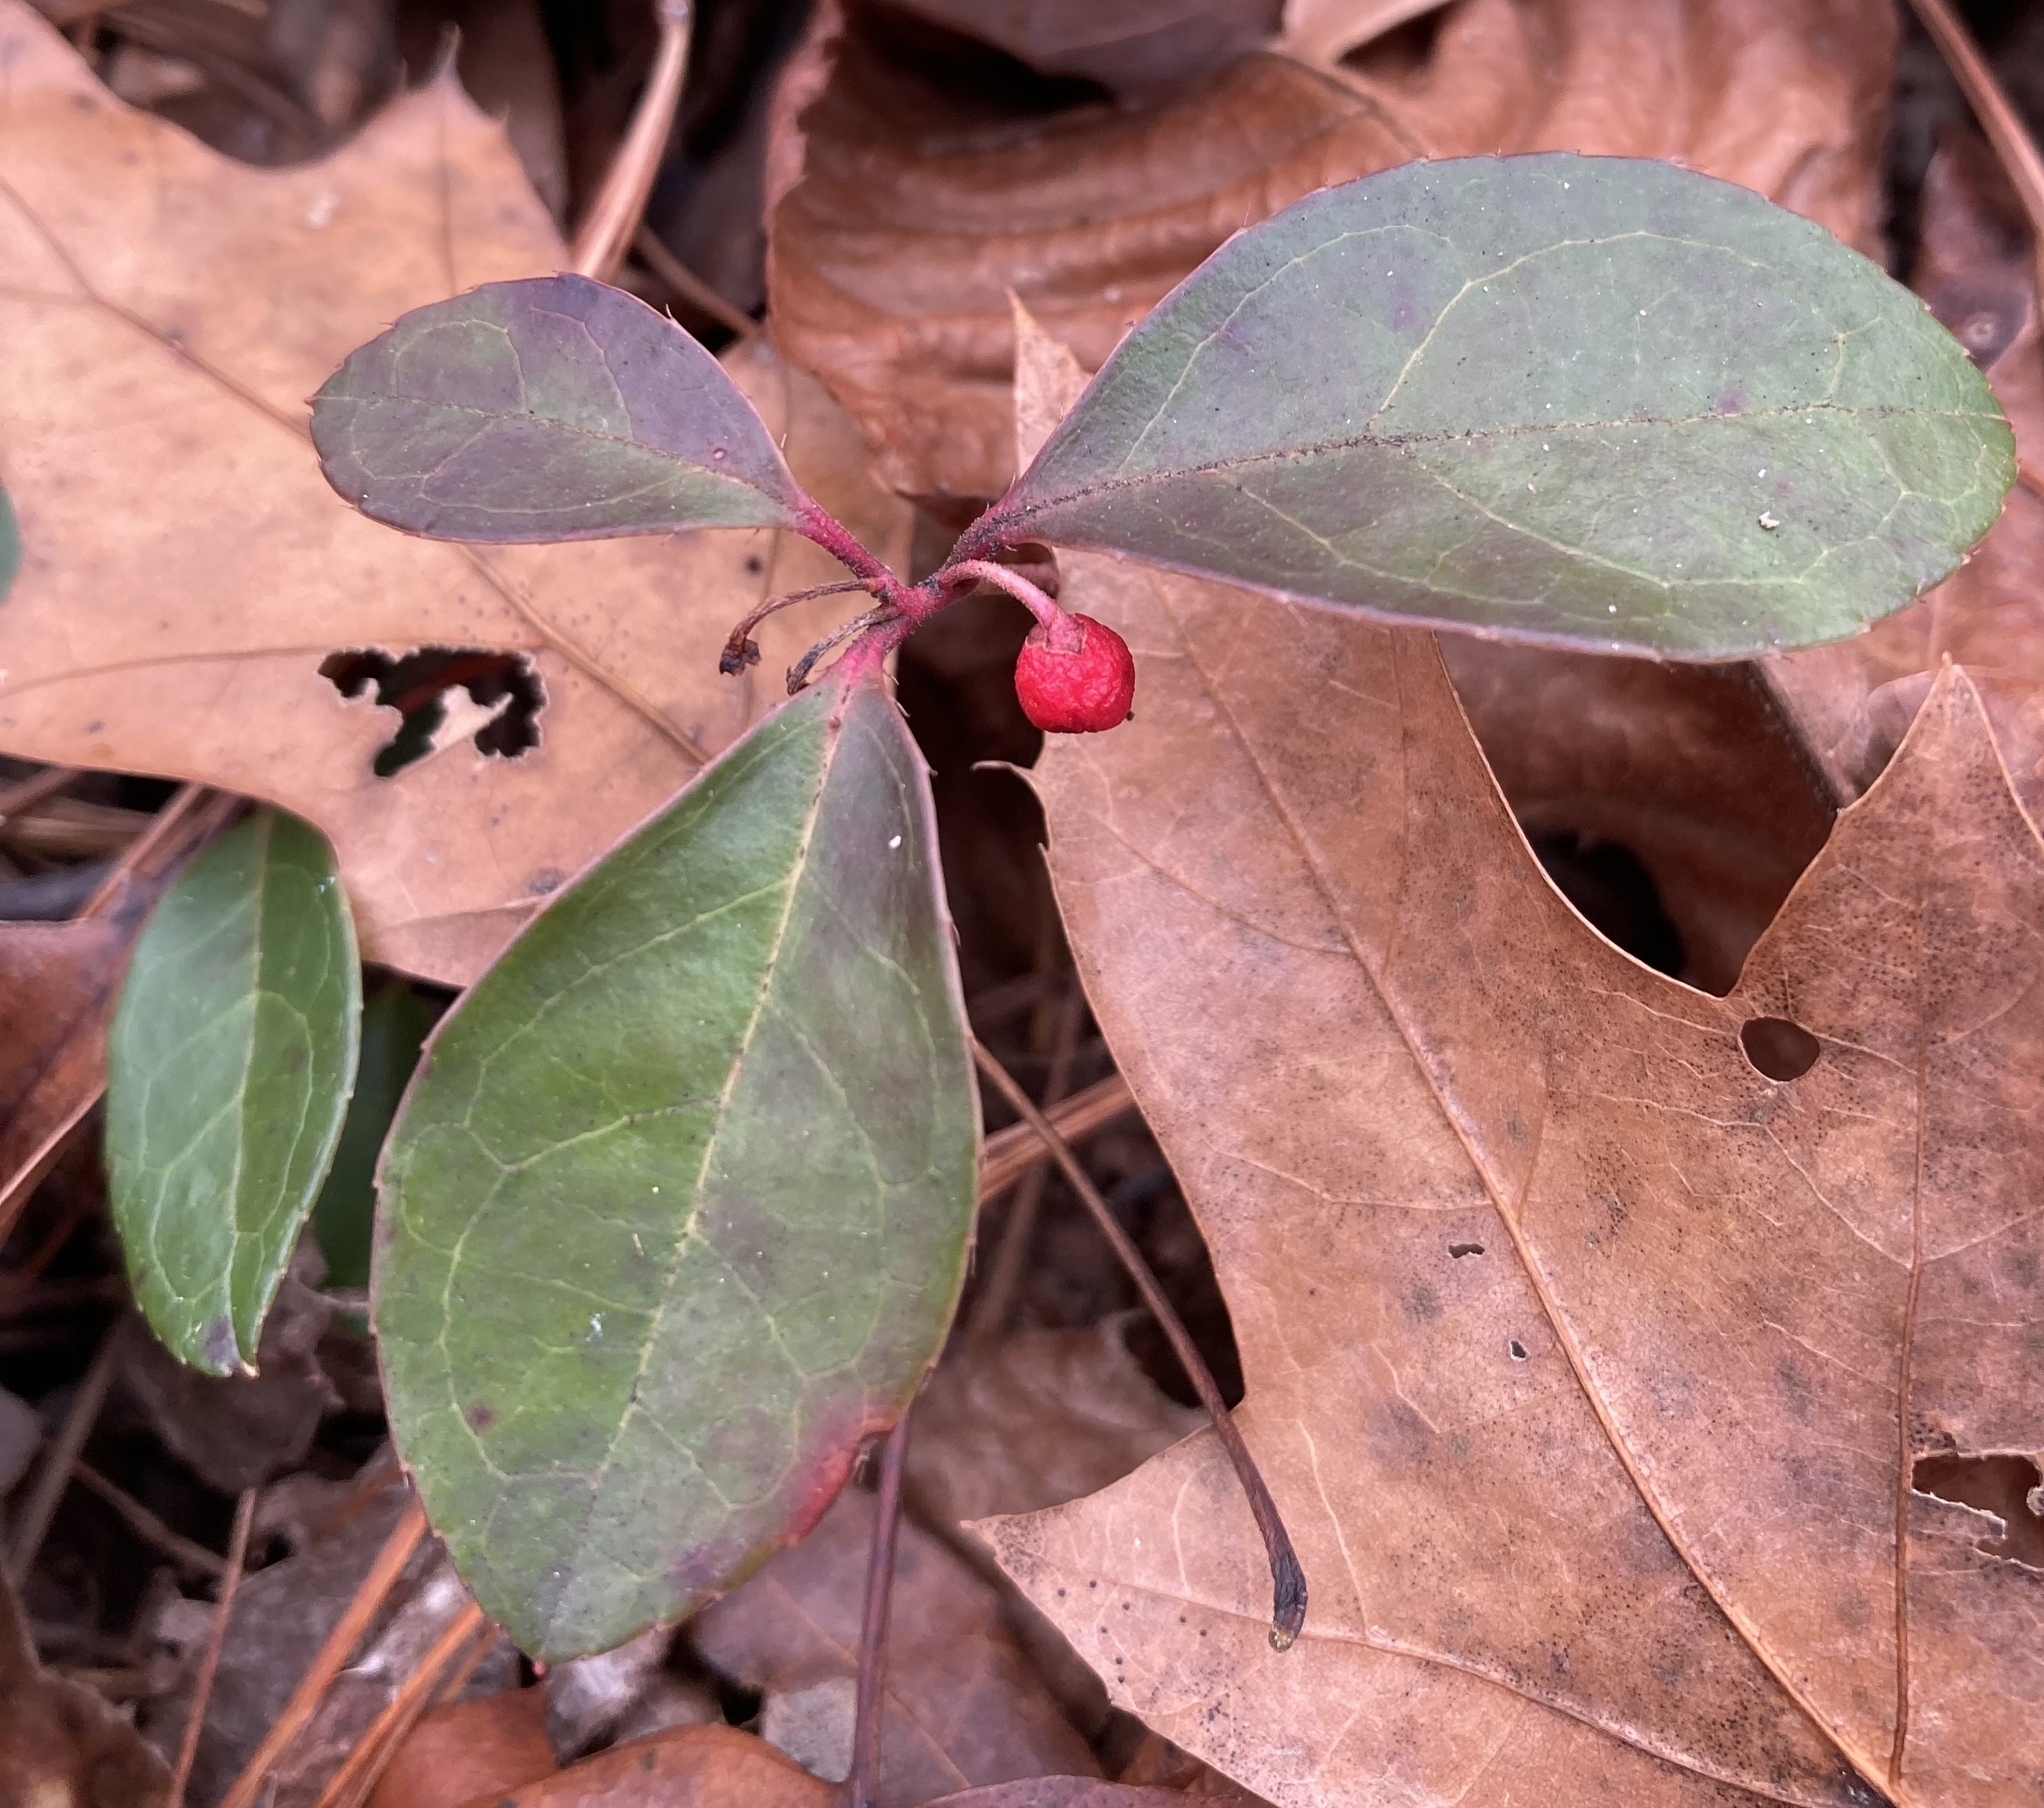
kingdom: Plantae
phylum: Tracheophyta
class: Magnoliopsida
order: Ericales
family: Ericaceae
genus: Gaultheria
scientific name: Gaultheria procumbens
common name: Checkerberry
